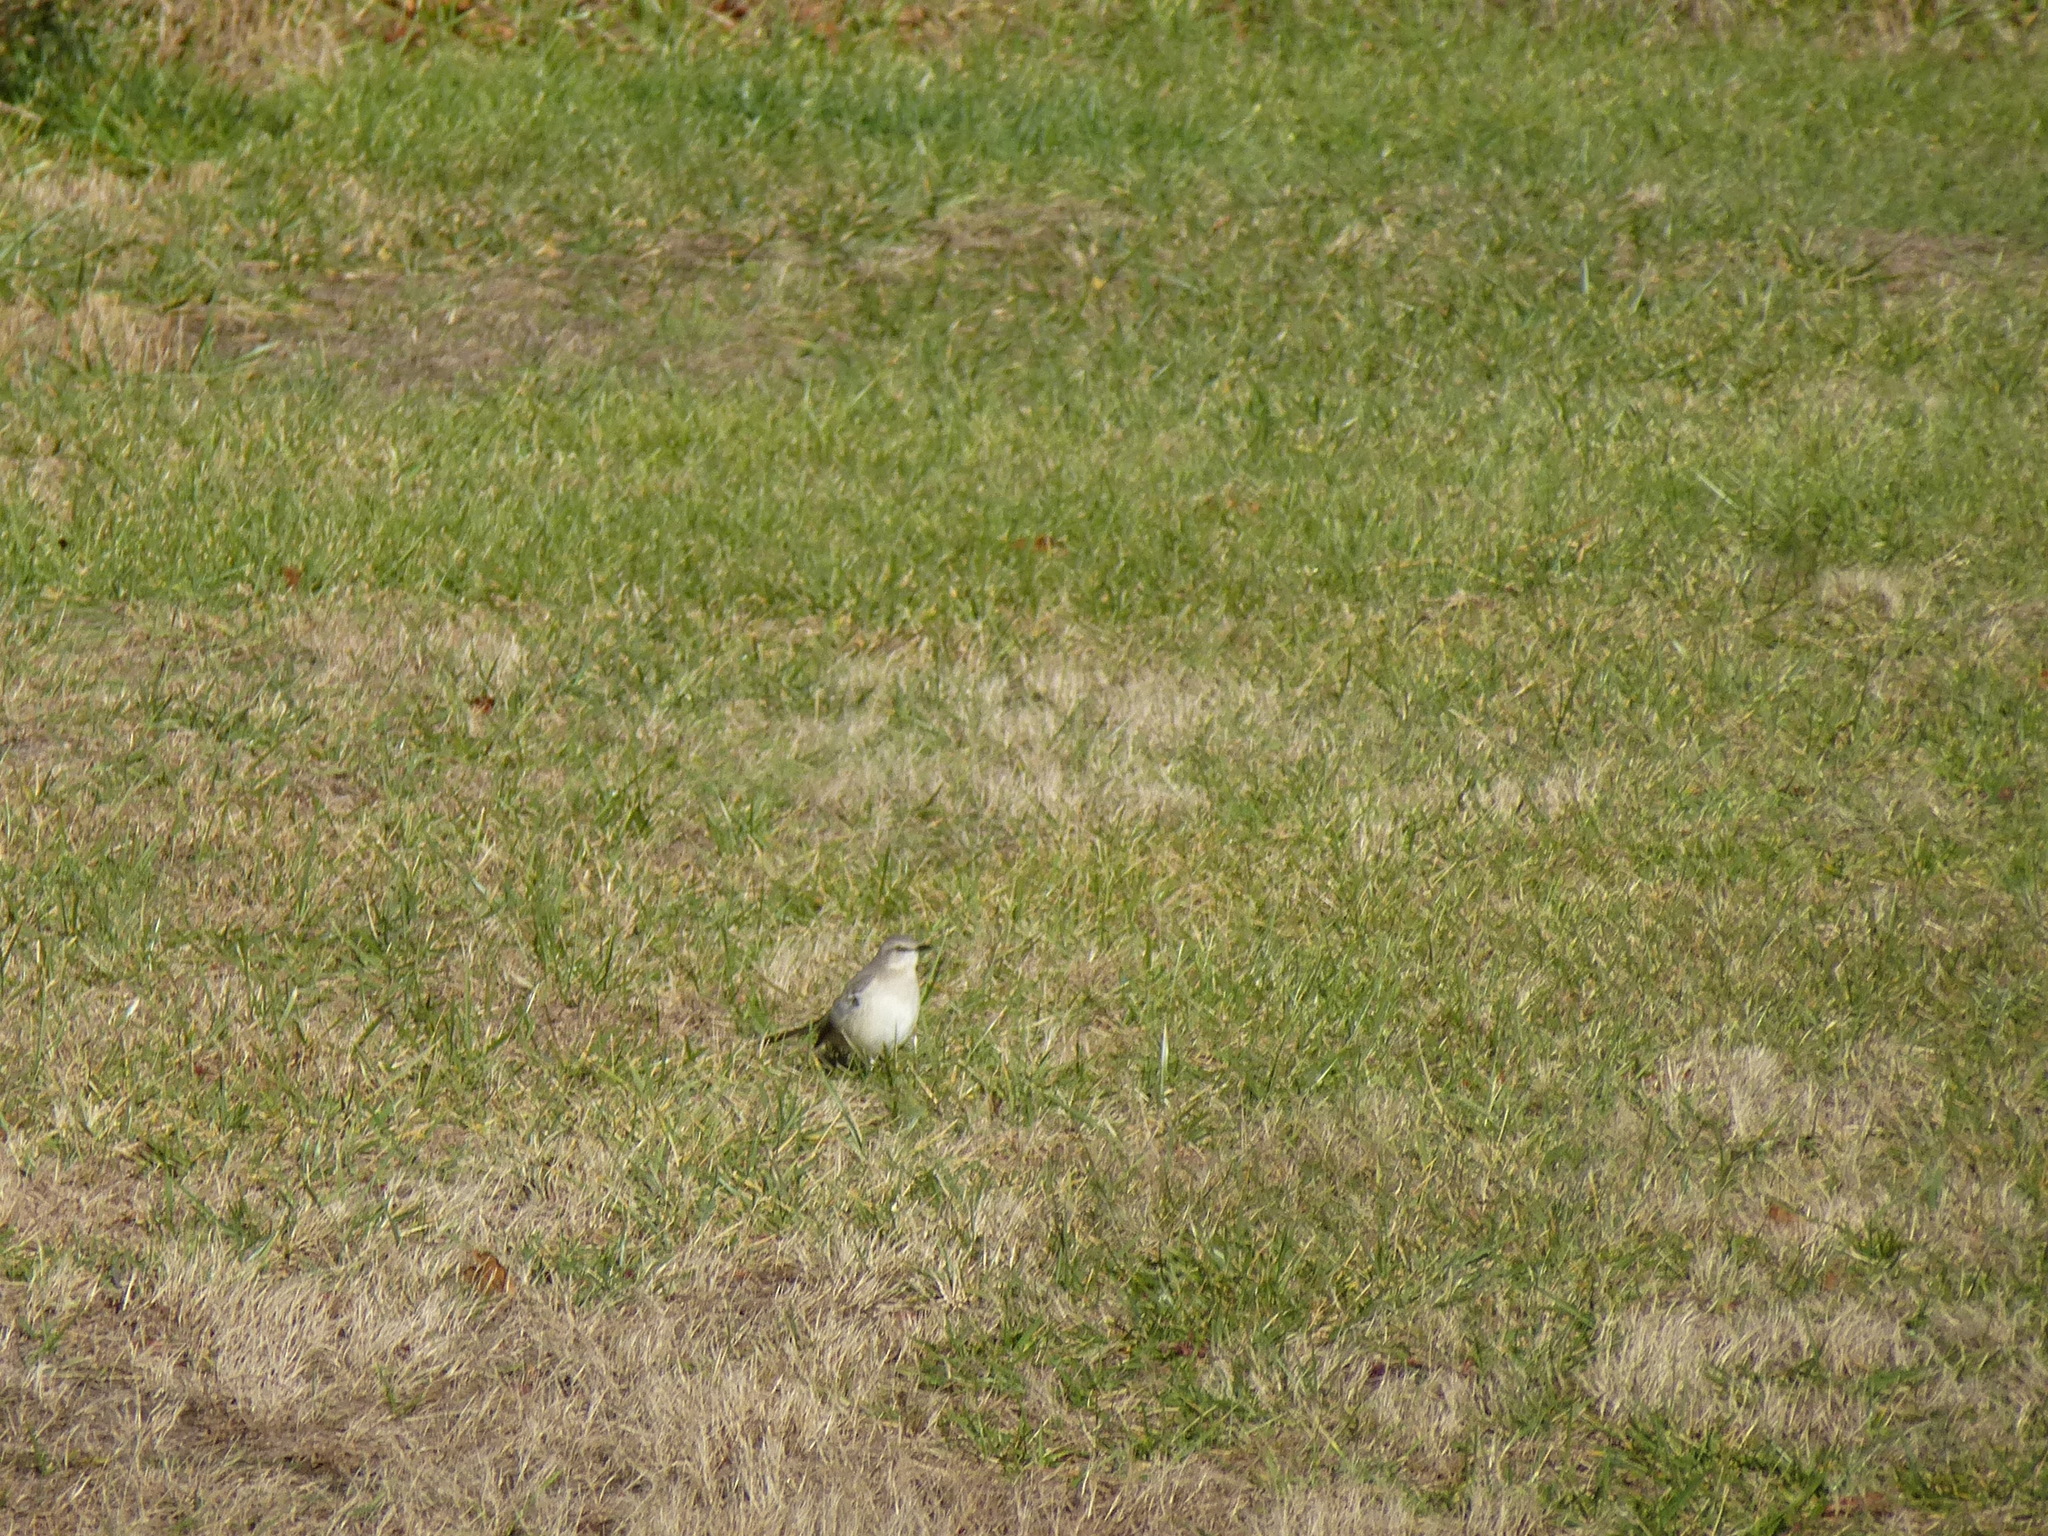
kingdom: Animalia
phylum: Chordata
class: Aves
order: Passeriformes
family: Mimidae
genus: Mimus
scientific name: Mimus polyglottos
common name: Northern mockingbird
